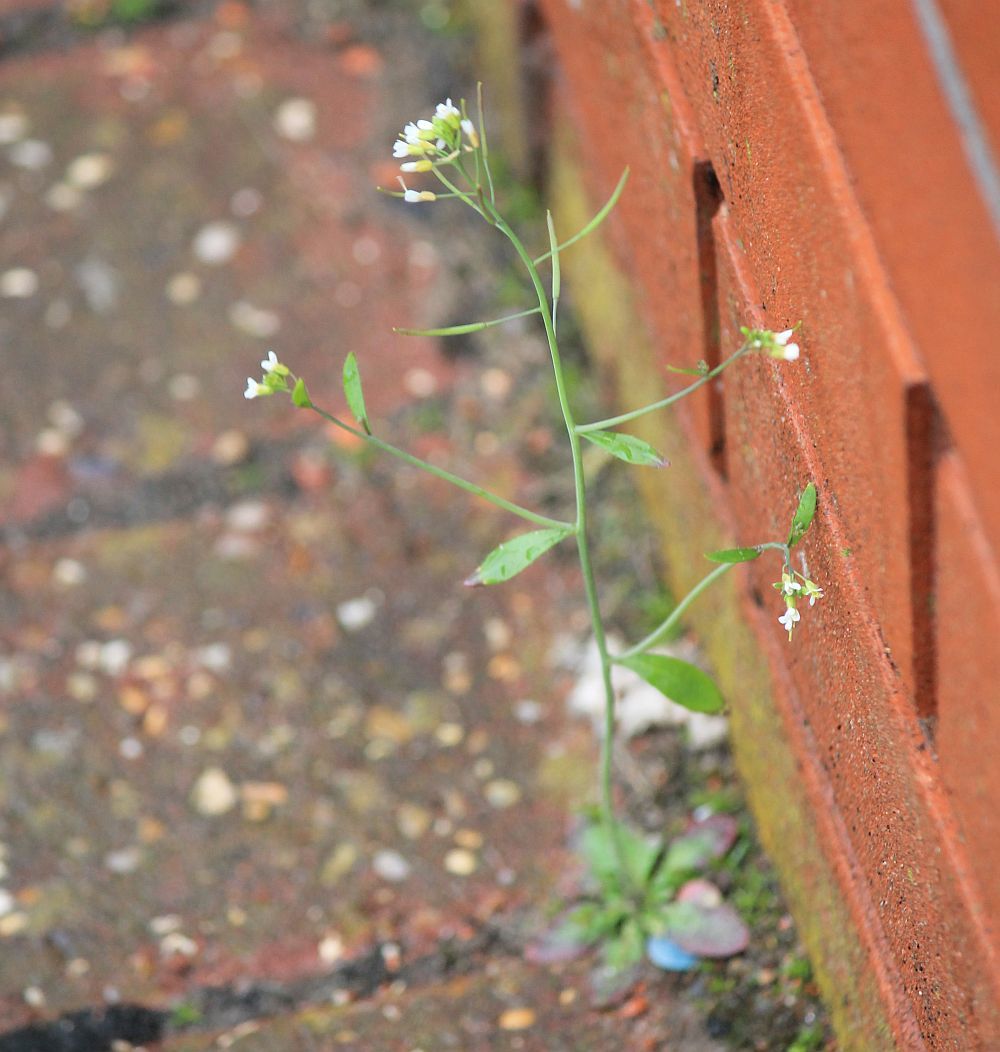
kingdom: Plantae
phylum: Tracheophyta
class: Magnoliopsida
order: Brassicales
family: Brassicaceae
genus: Arabidopsis
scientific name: Arabidopsis thaliana
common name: Thale cress
